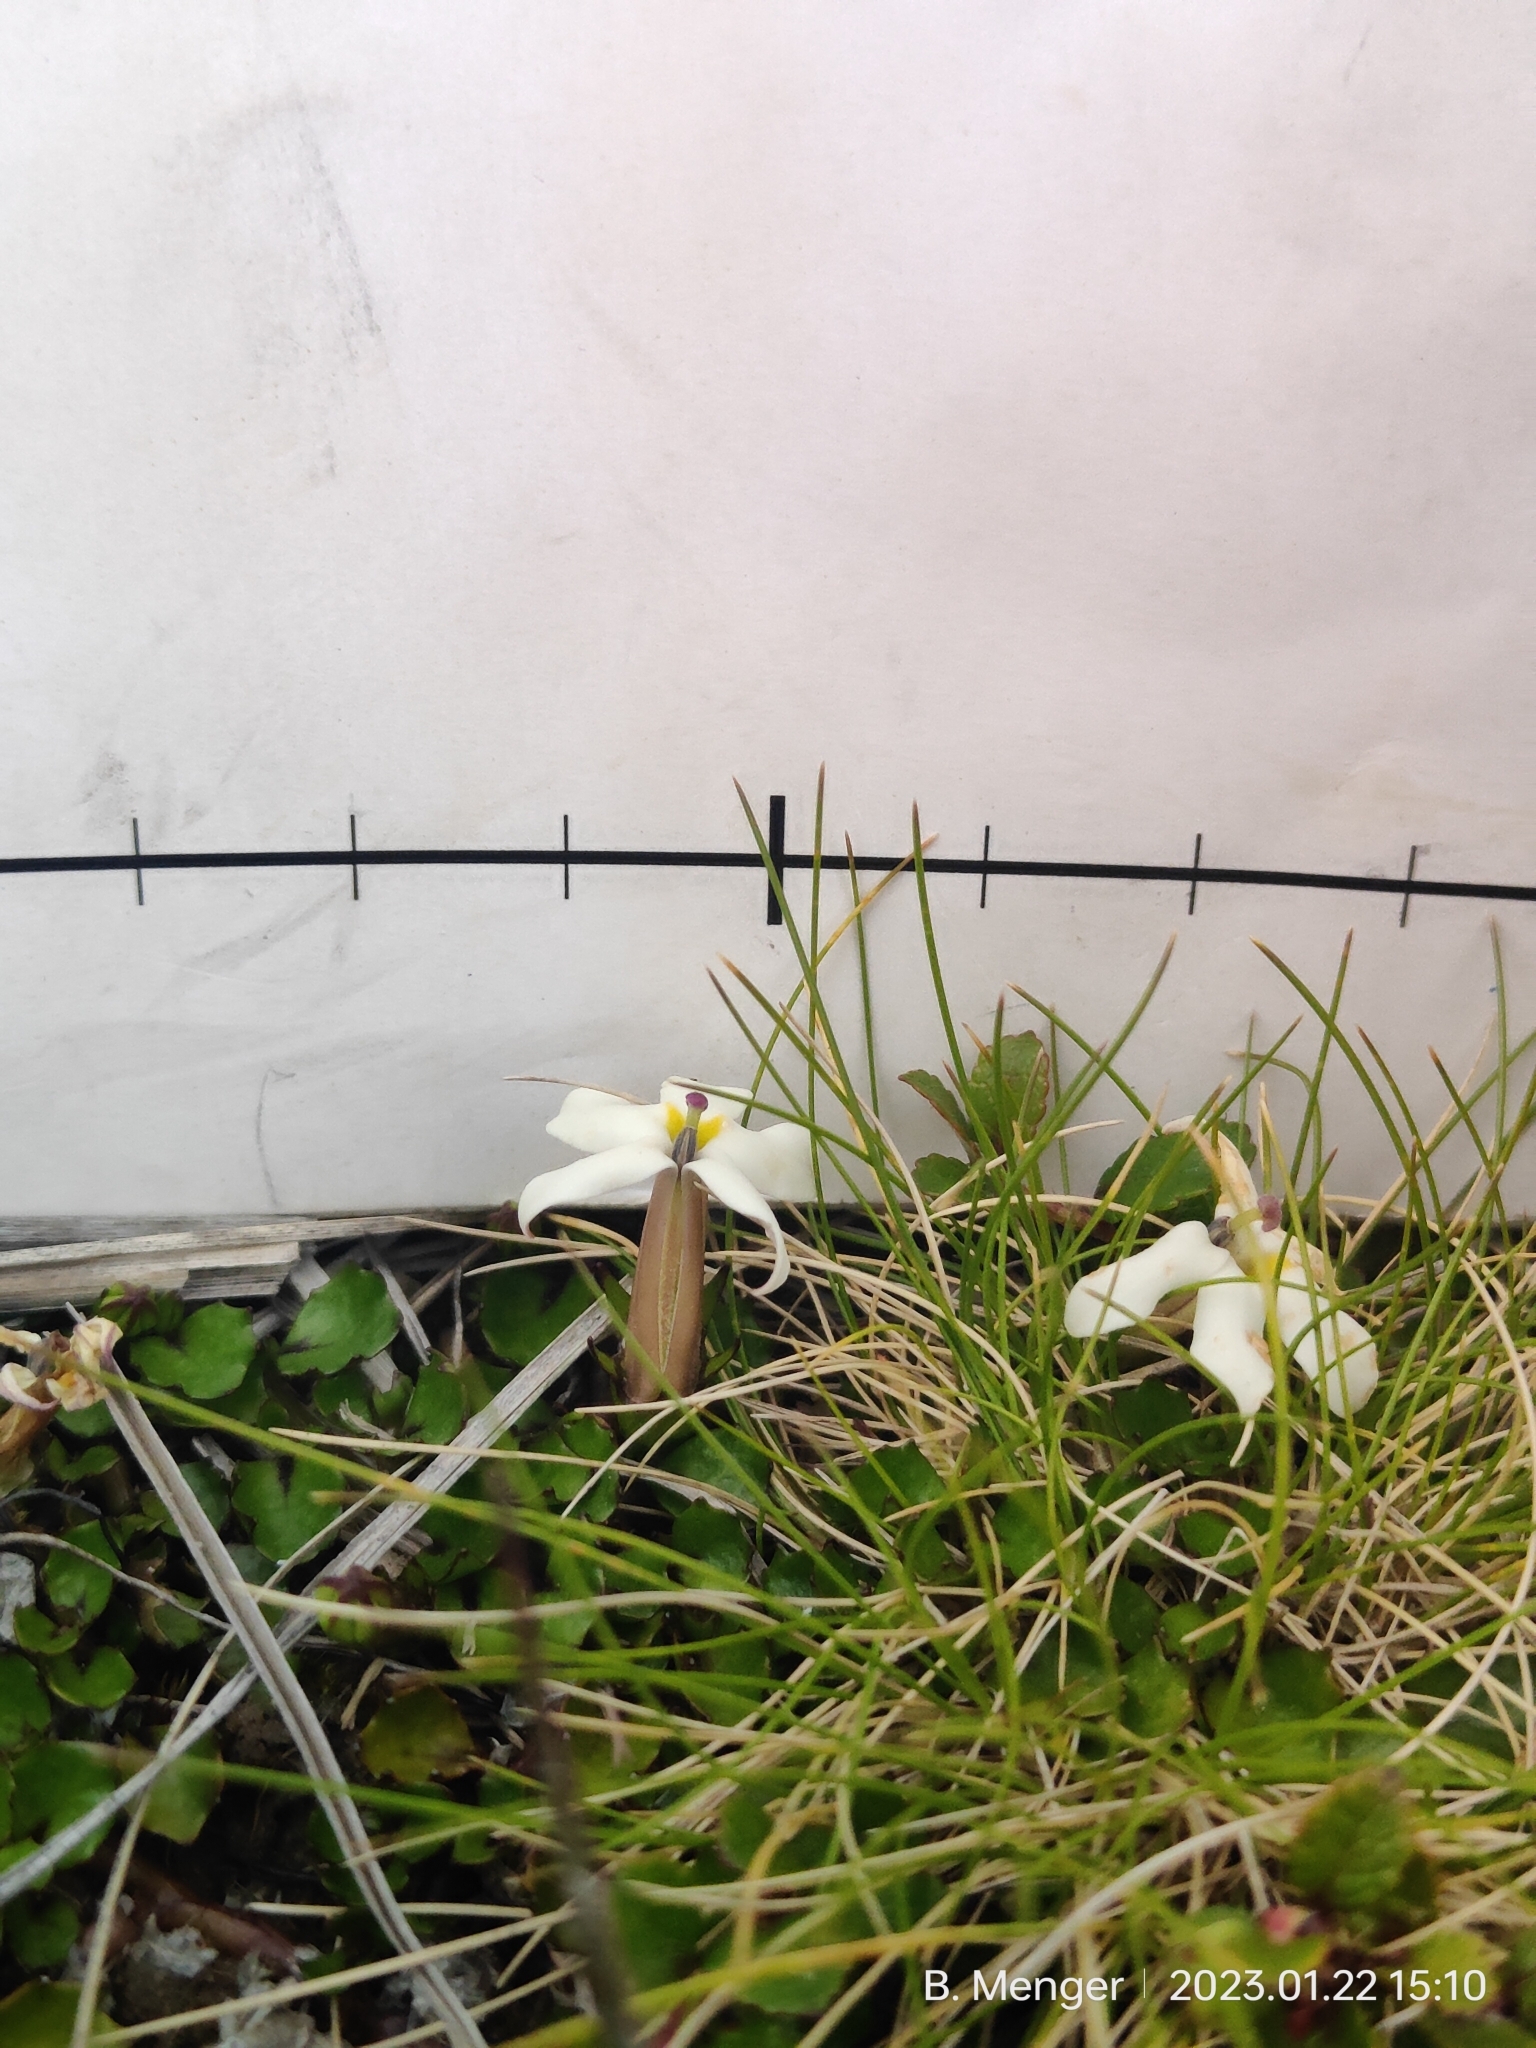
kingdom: Plantae
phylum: Tracheophyta
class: Magnoliopsida
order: Asterales
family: Campanulaceae
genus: Lobelia
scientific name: Lobelia macrodon
